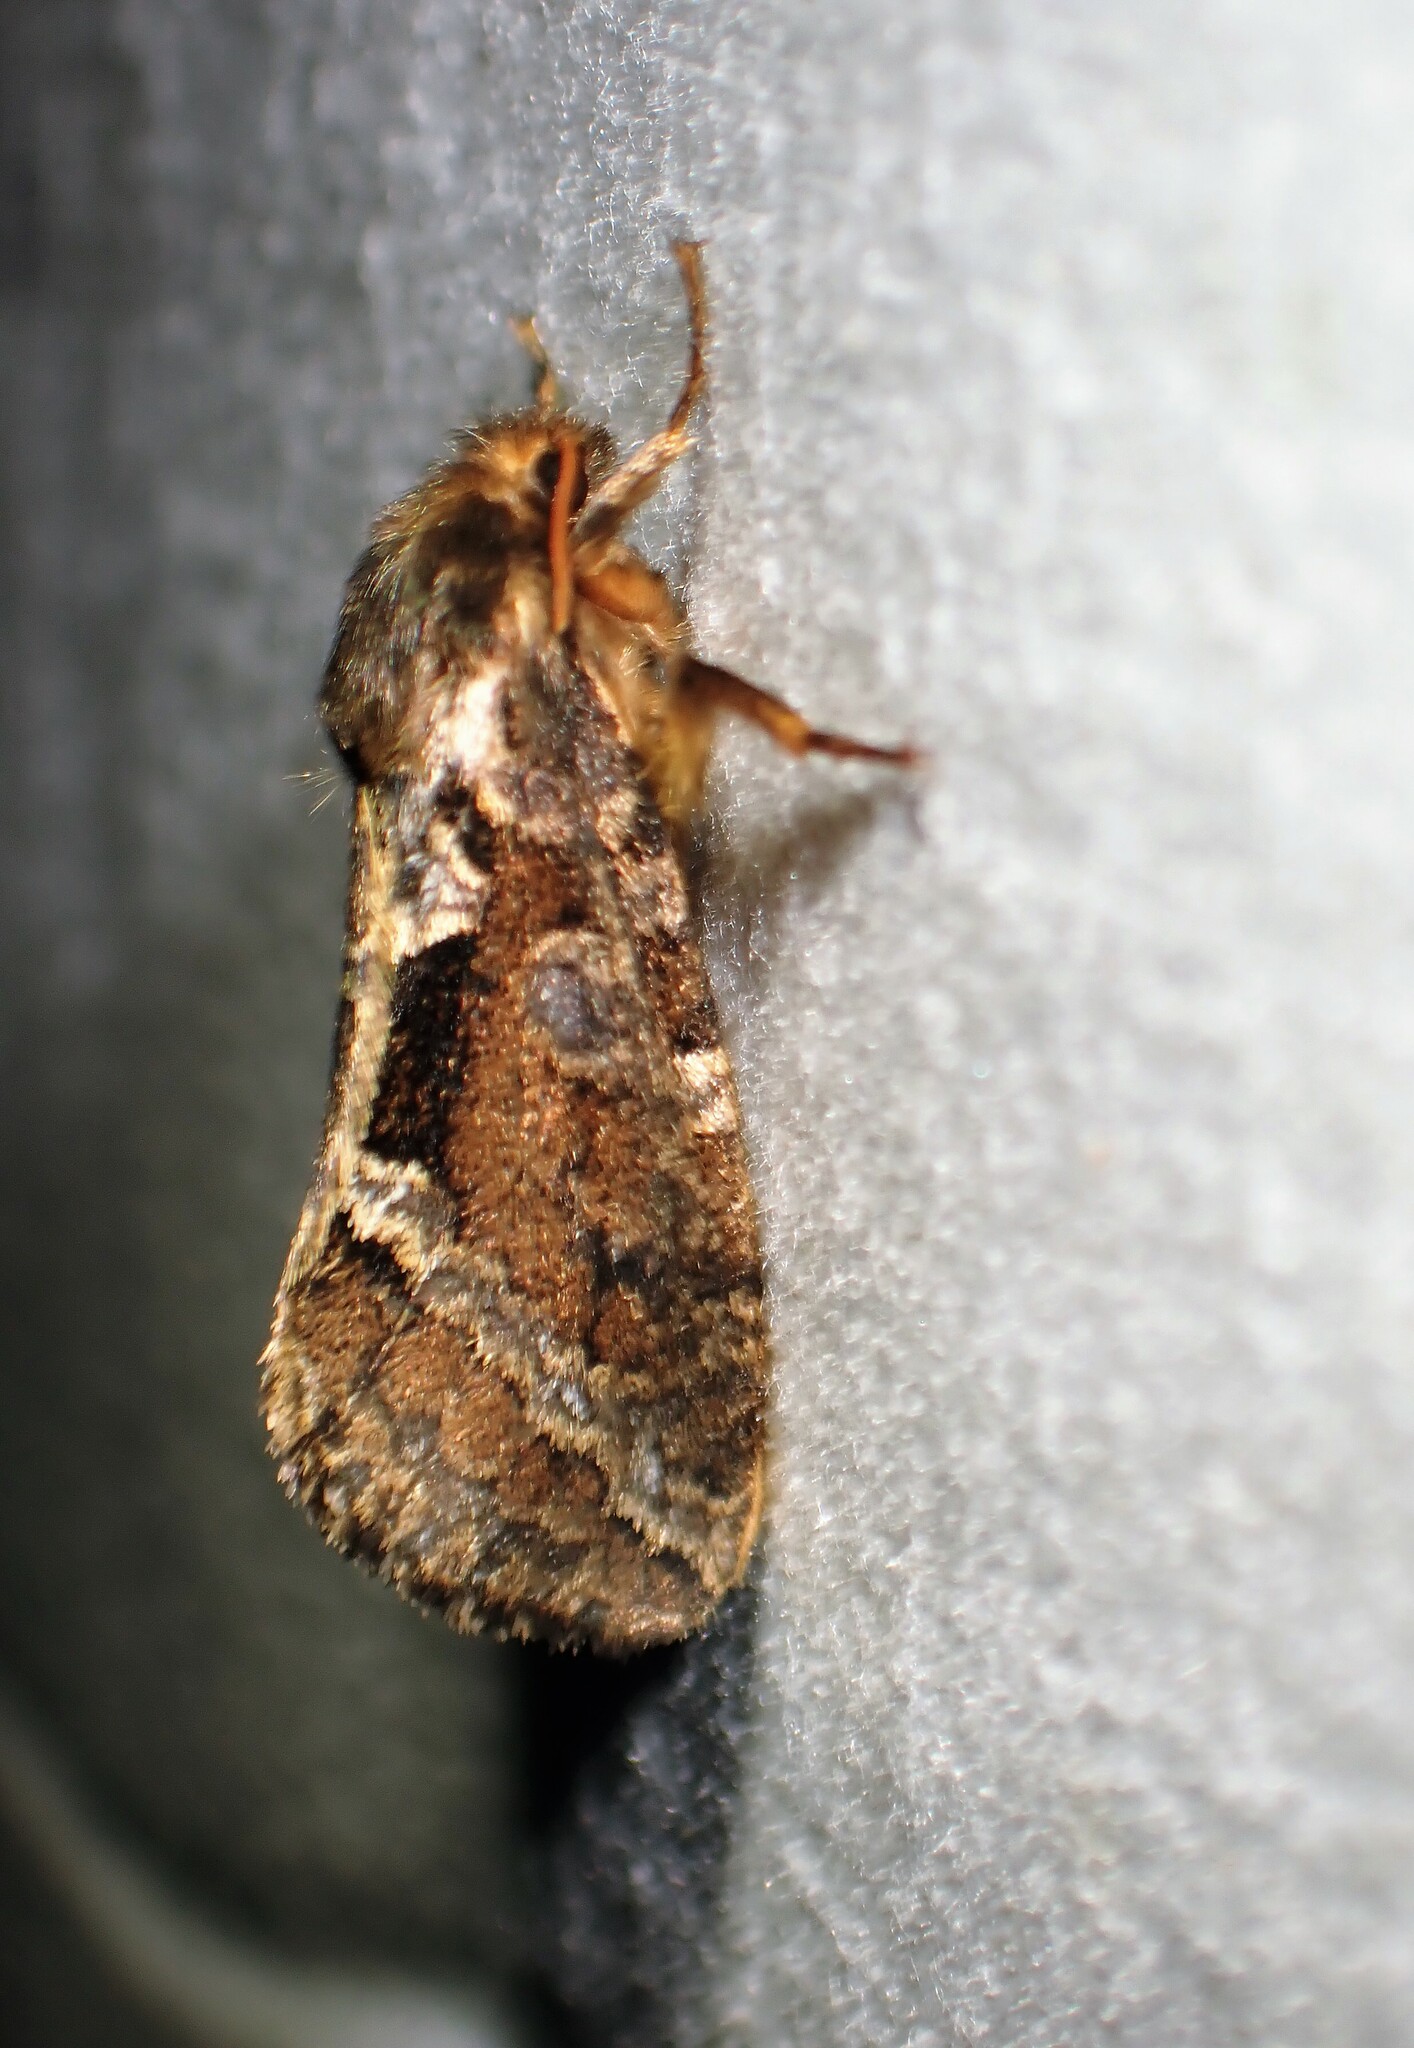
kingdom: Animalia
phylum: Arthropoda
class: Insecta
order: Lepidoptera
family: Hepialidae
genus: Korscheltellus
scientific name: Korscheltellus gracilis
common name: Conifer swift moth
